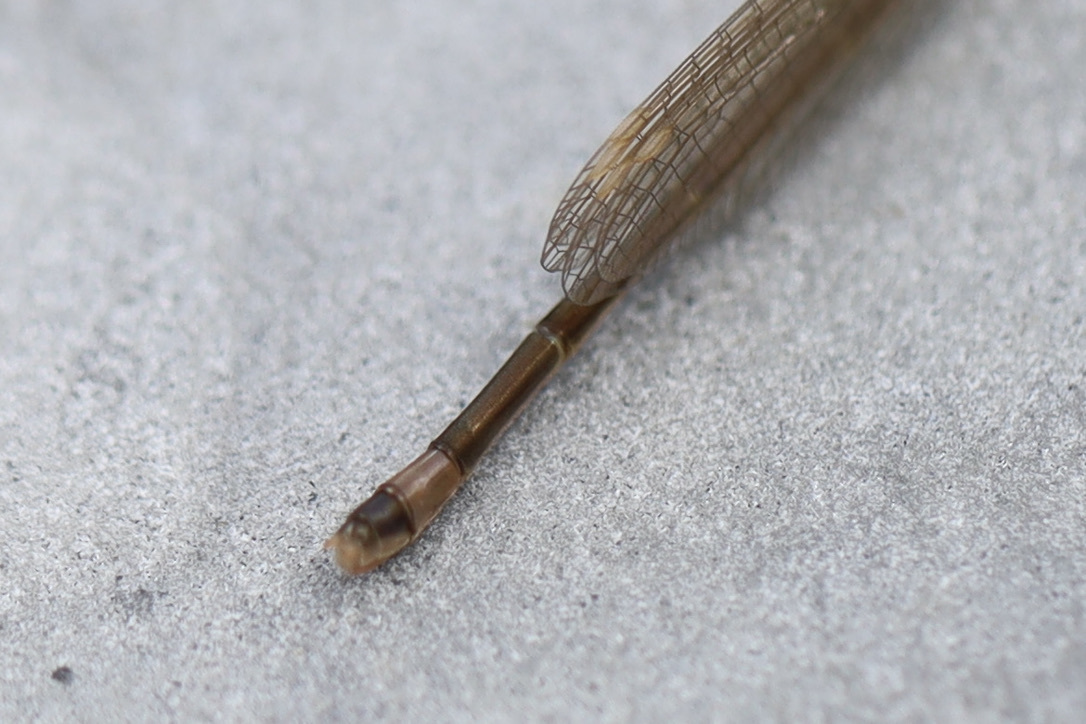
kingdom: Animalia
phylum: Arthropoda
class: Insecta
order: Odonata
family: Coenagrionidae
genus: Ischnura
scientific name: Ischnura cervula
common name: Pacific forktail
